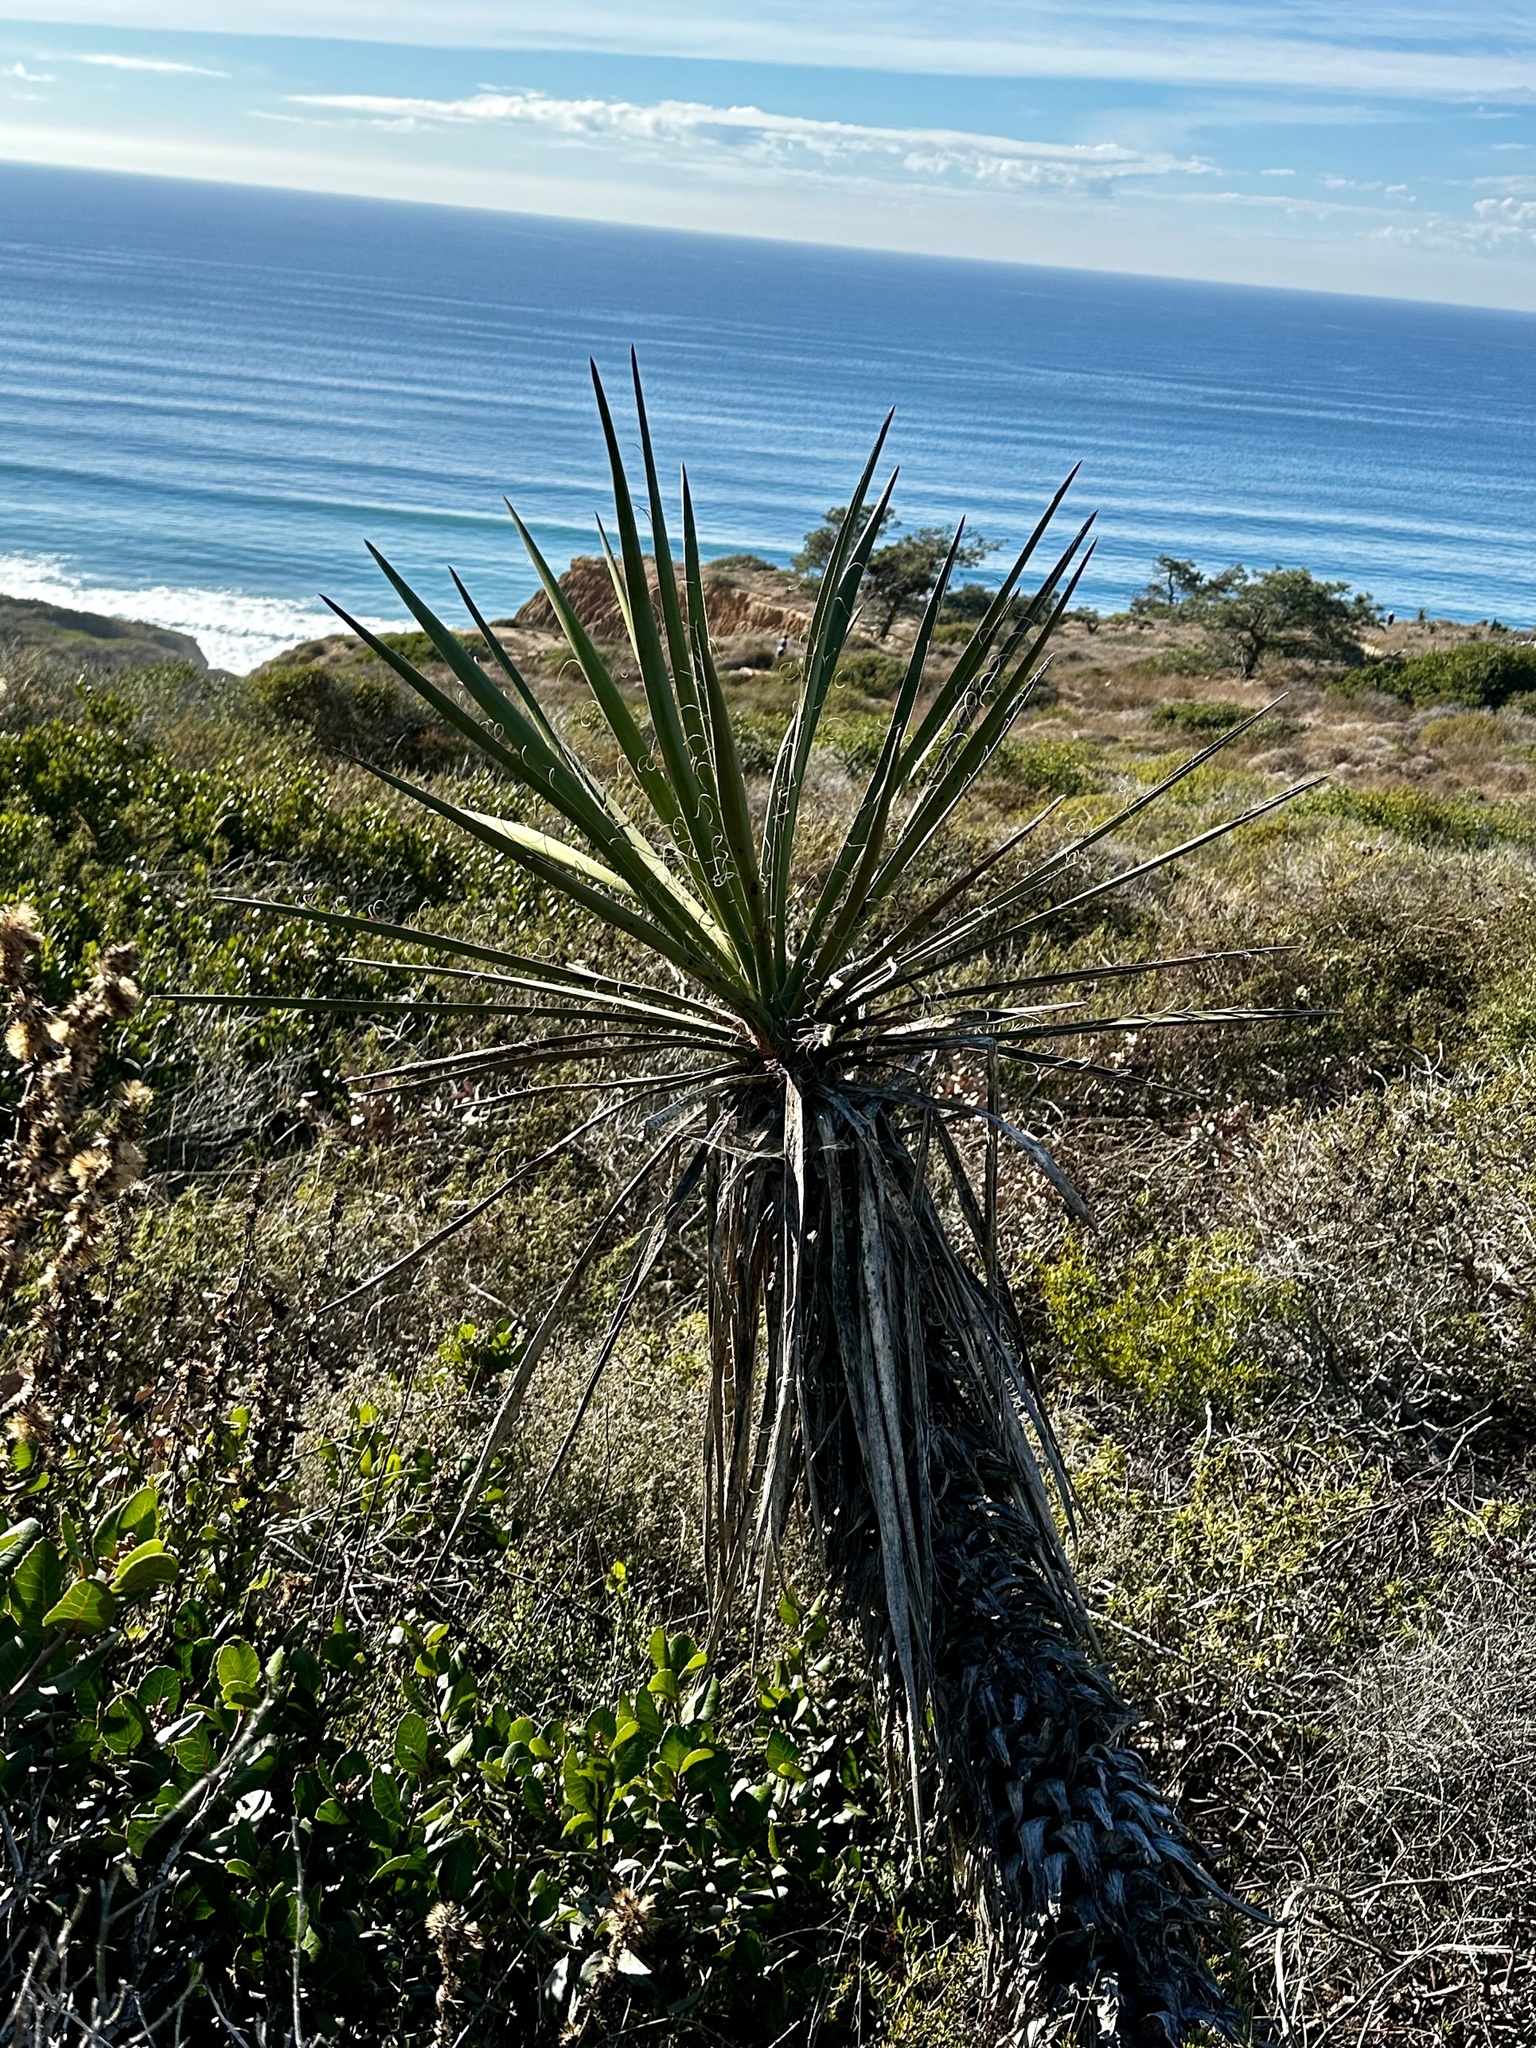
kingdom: Plantae
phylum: Tracheophyta
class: Liliopsida
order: Asparagales
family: Asparagaceae
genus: Yucca
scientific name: Yucca schidigera
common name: Mojave yucca
